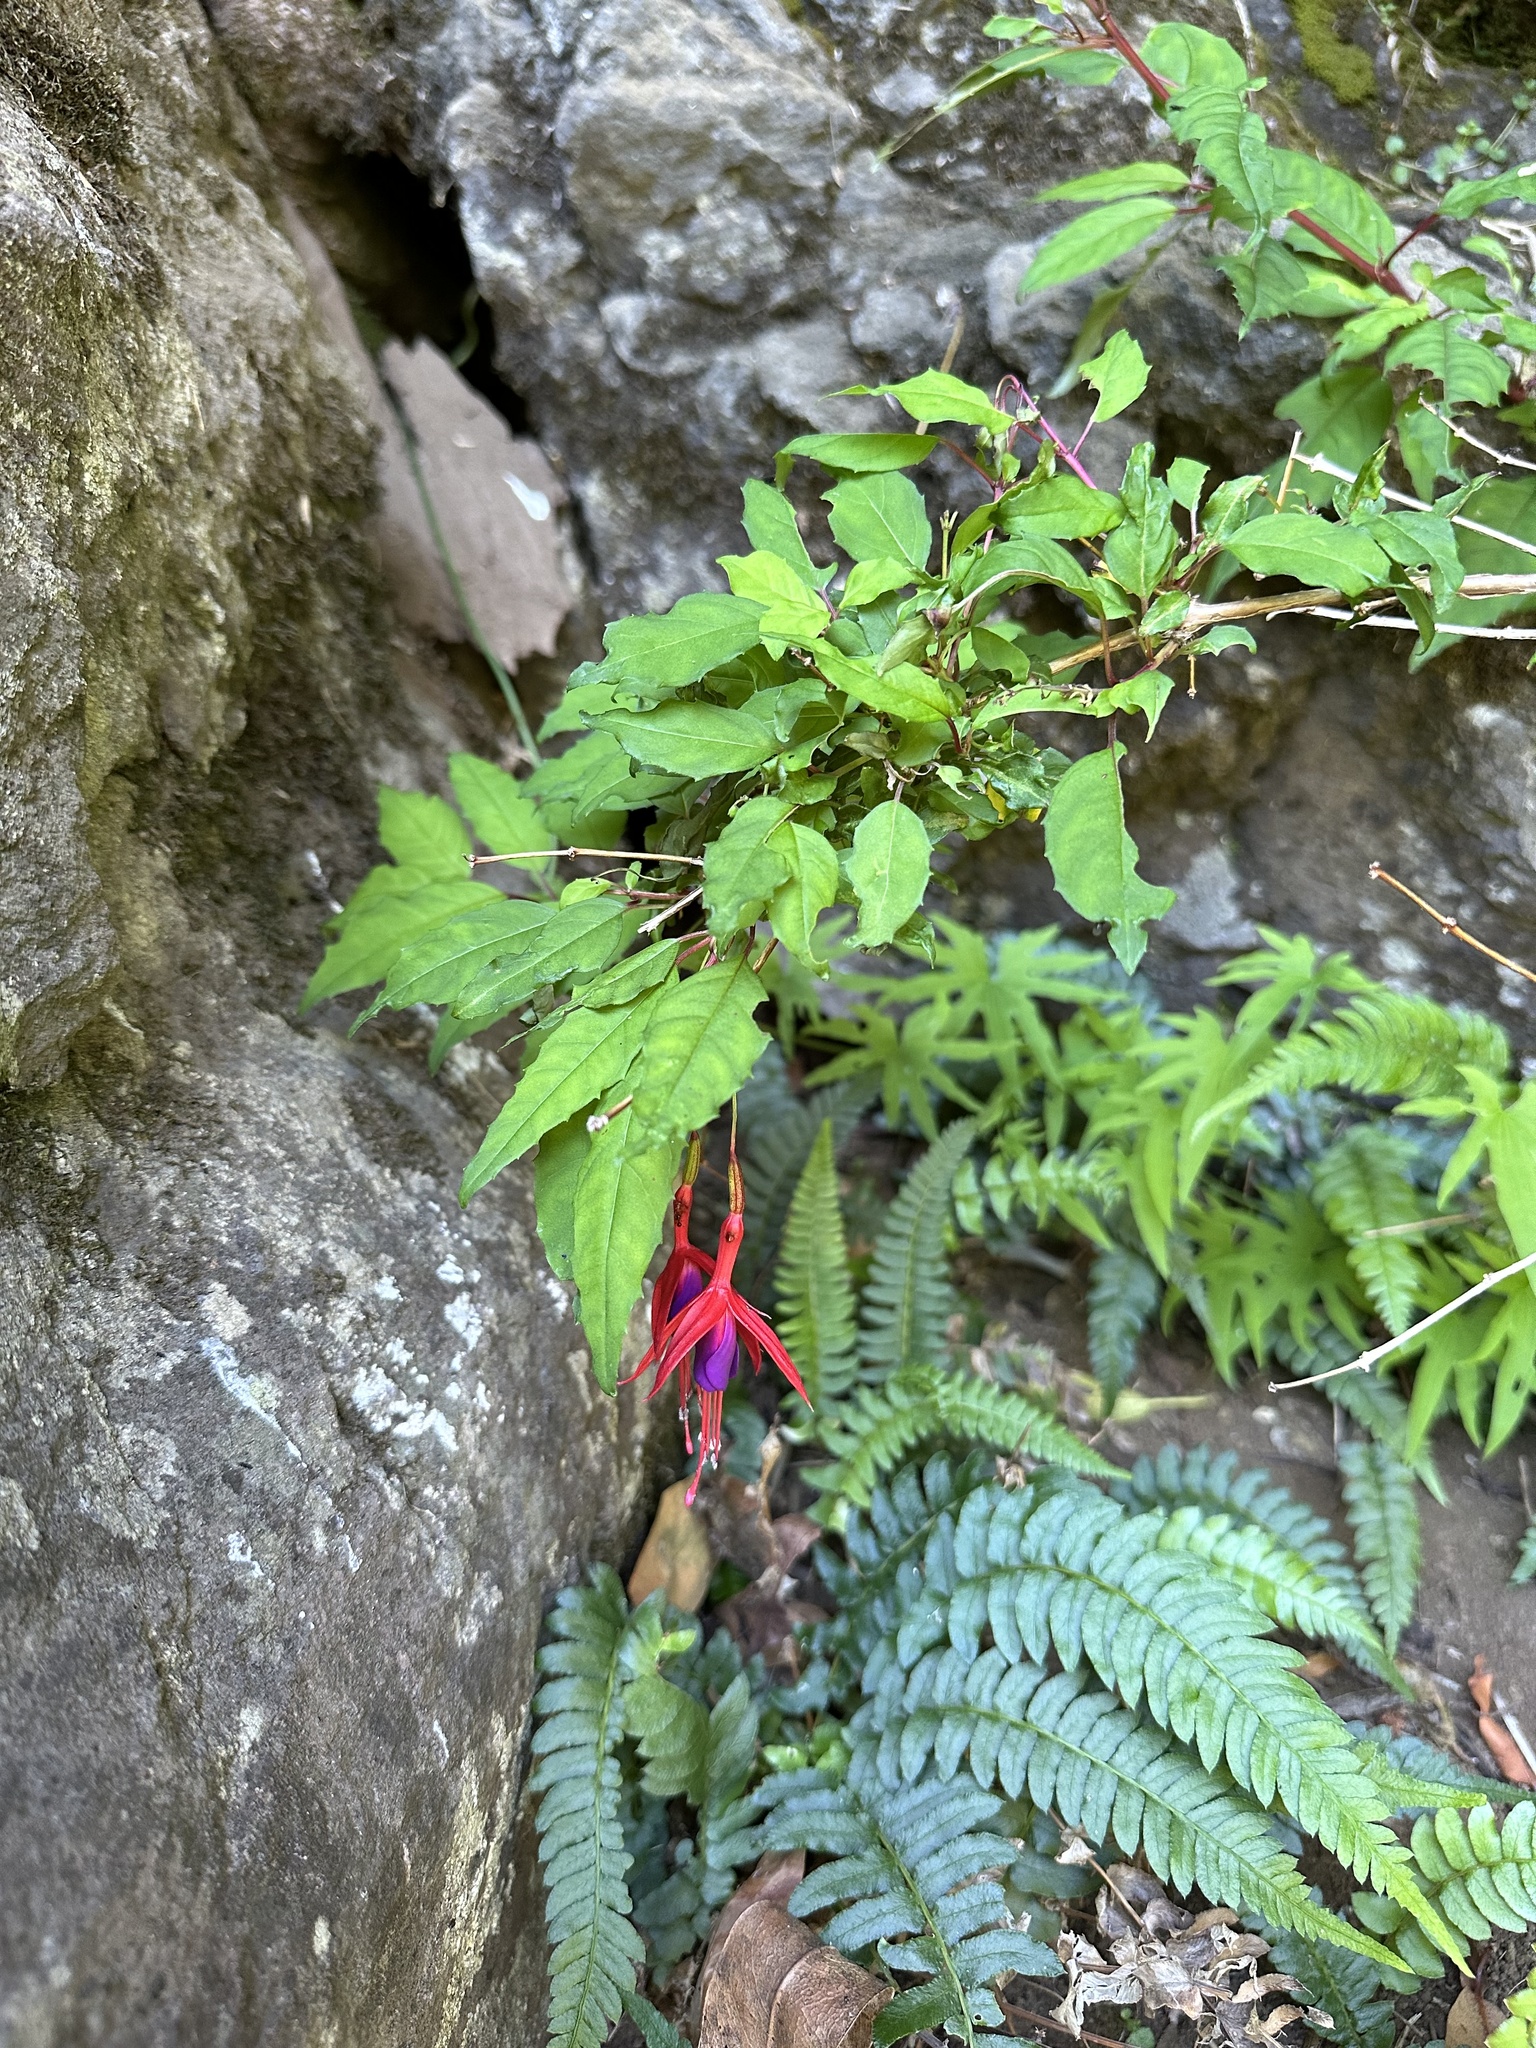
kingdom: Plantae
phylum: Tracheophyta
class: Magnoliopsida
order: Myrtales
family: Onagraceae
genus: Fuchsia
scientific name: Fuchsia magellanica
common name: Hardy fuchsia
